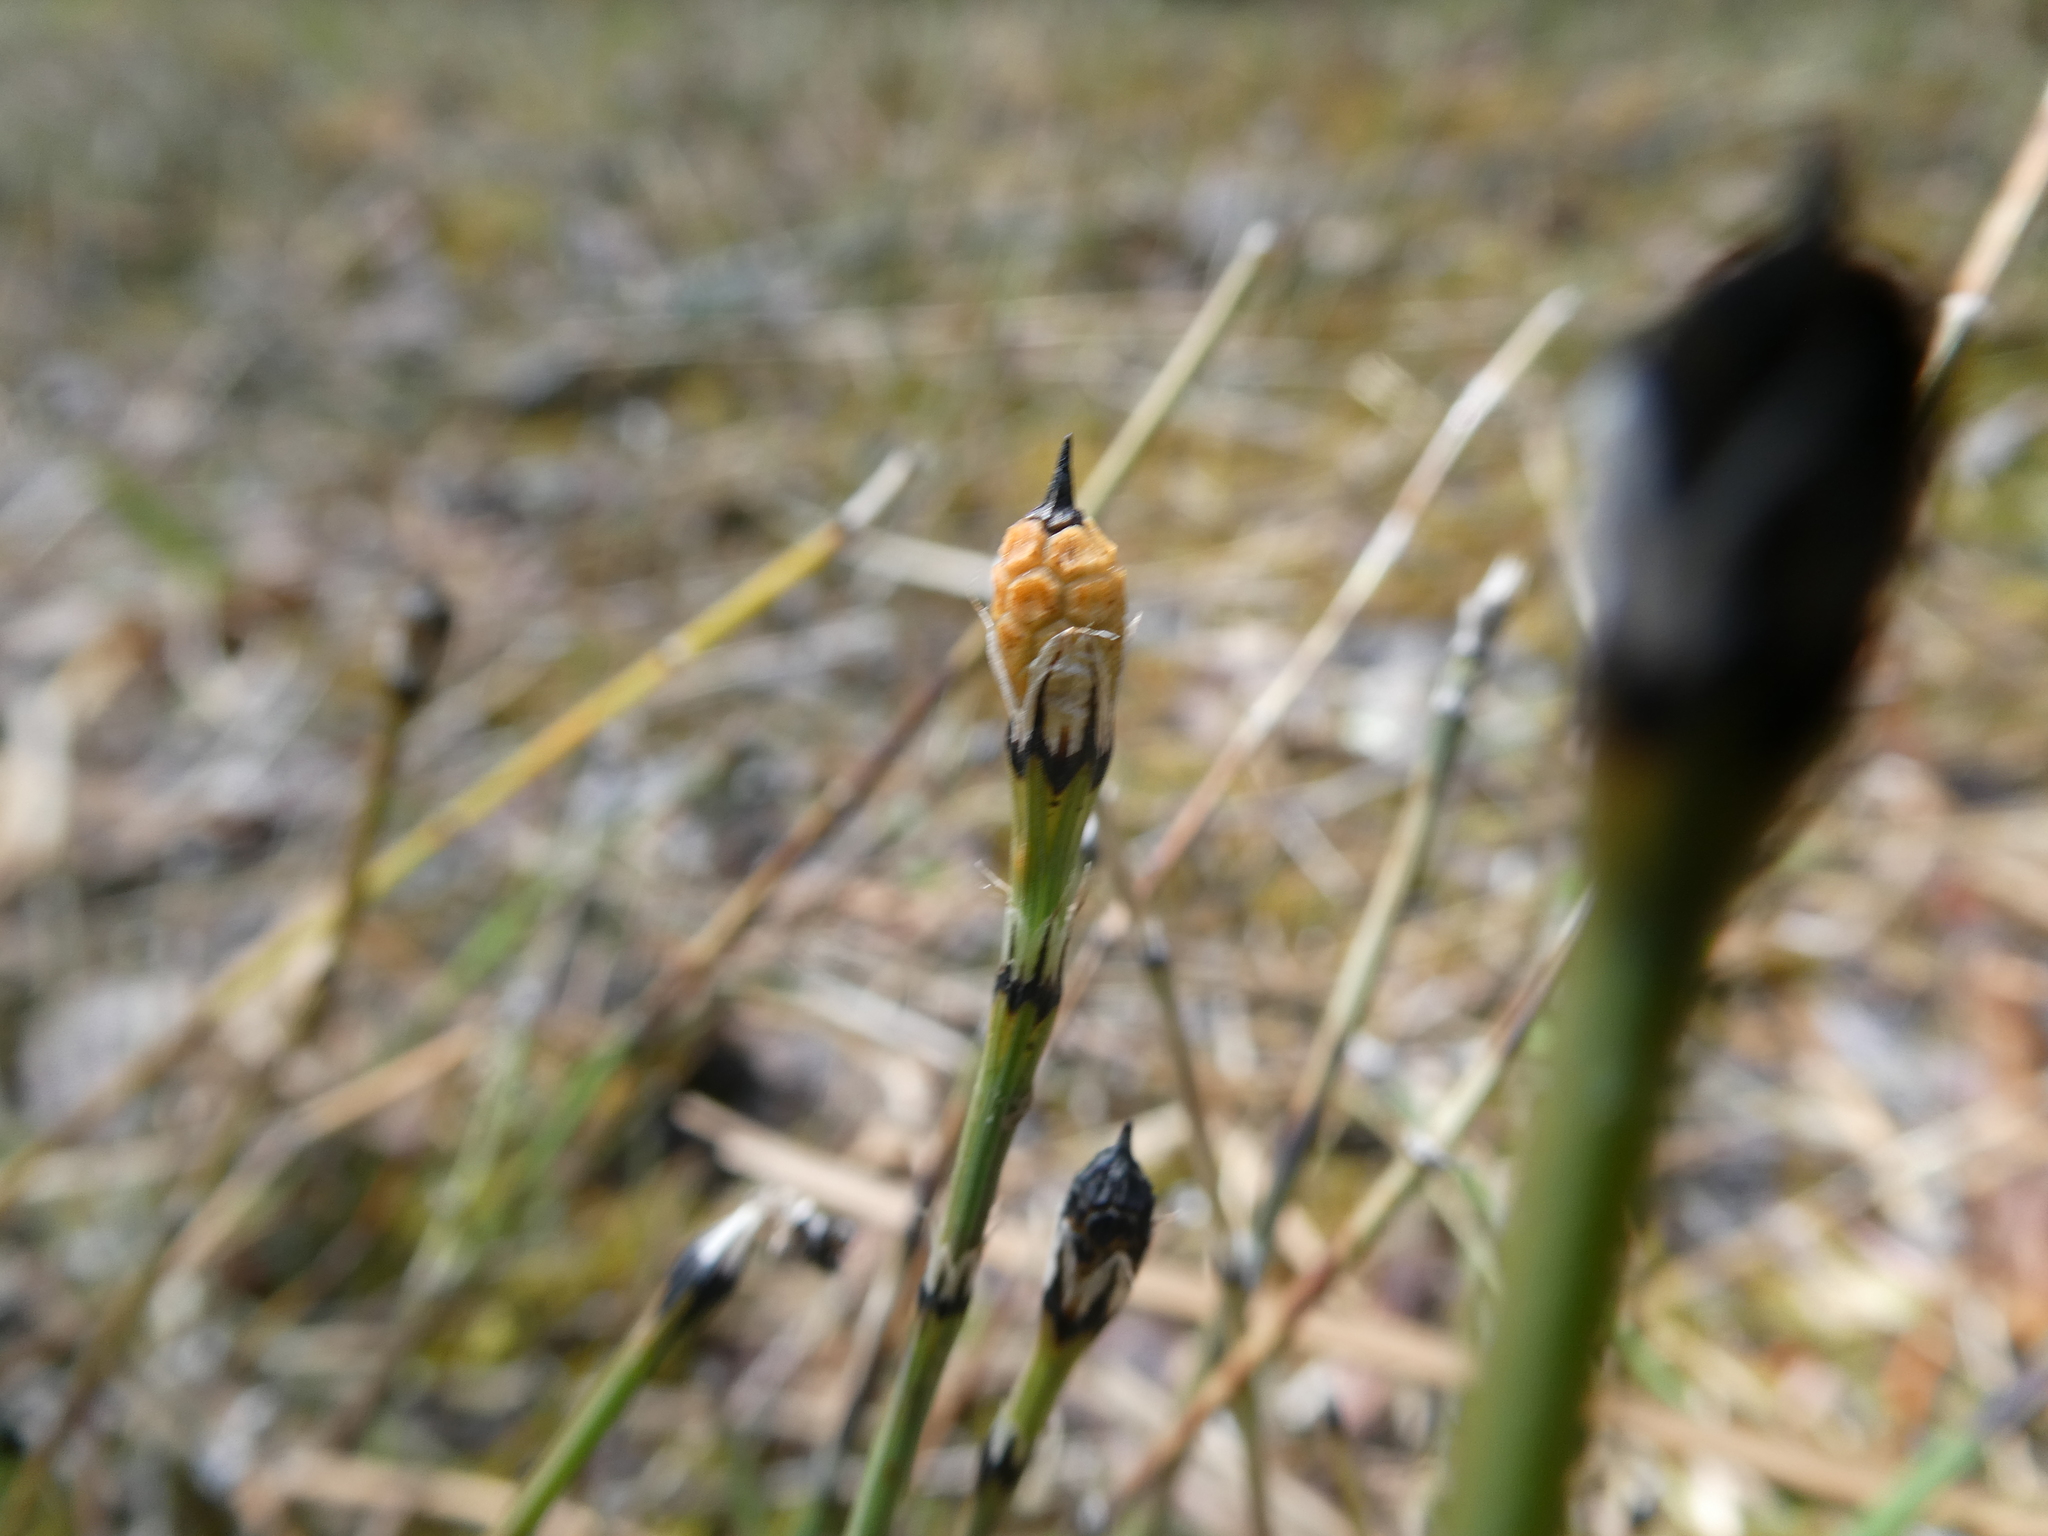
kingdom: Plantae
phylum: Tracheophyta
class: Polypodiopsida
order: Equisetales
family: Equisetaceae
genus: Equisetum
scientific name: Equisetum variegatum
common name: Variegated horsetail
